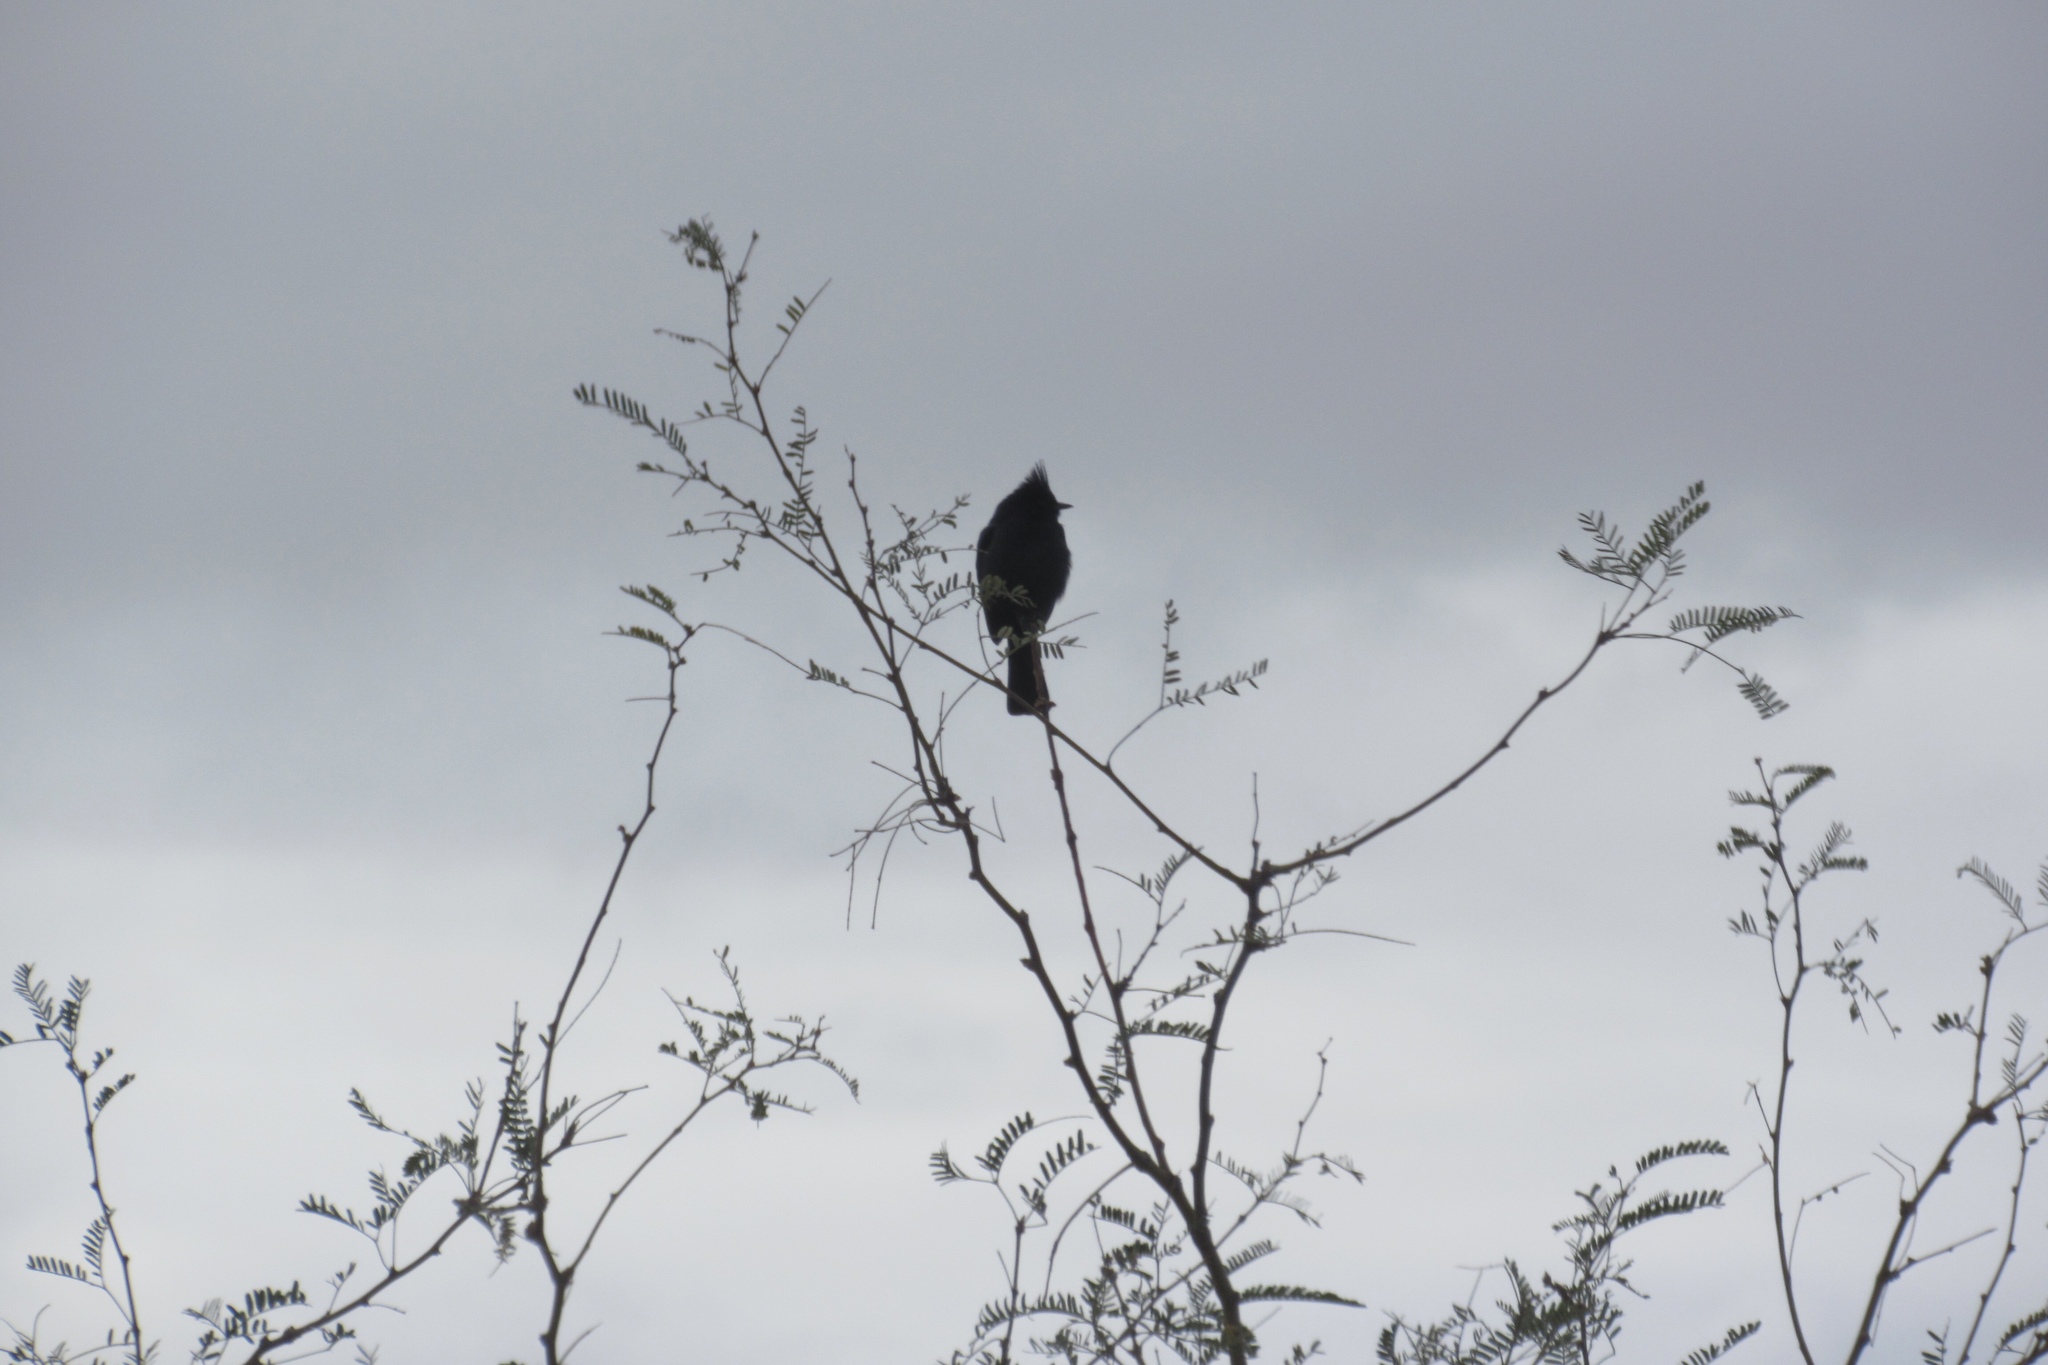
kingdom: Animalia
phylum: Chordata
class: Aves
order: Passeriformes
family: Ptilogonatidae
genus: Phainopepla
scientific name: Phainopepla nitens
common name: Phainopepla
